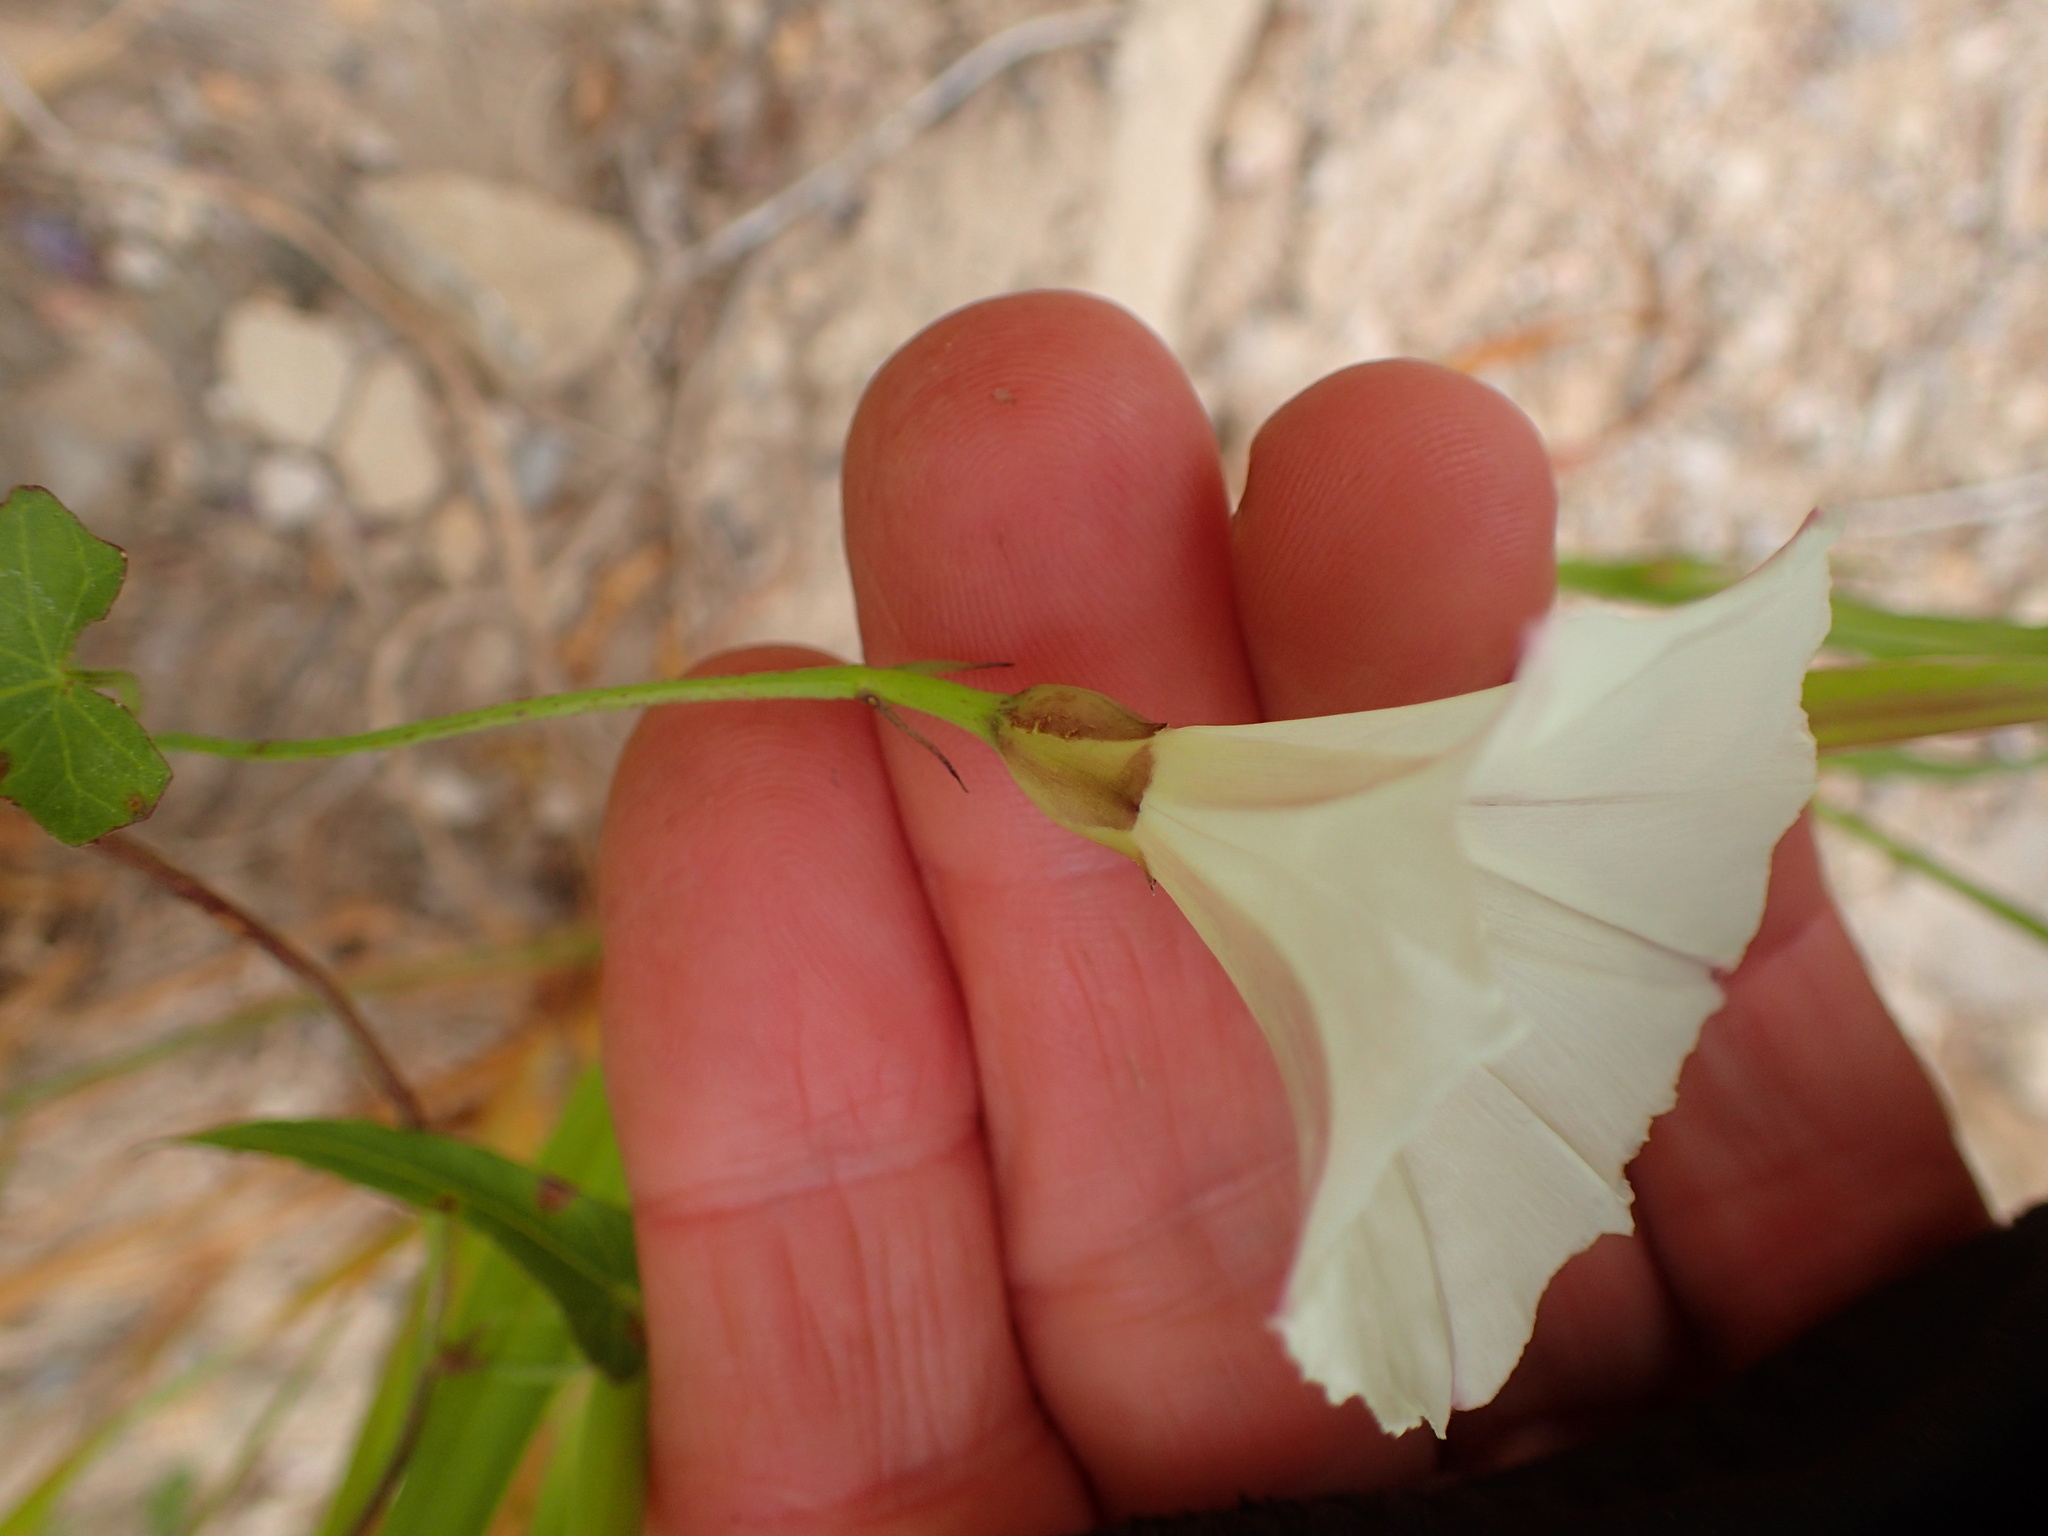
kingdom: Plantae
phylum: Tracheophyta
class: Magnoliopsida
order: Solanales
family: Convolvulaceae
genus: Calystegia
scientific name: Calystegia purpurata
